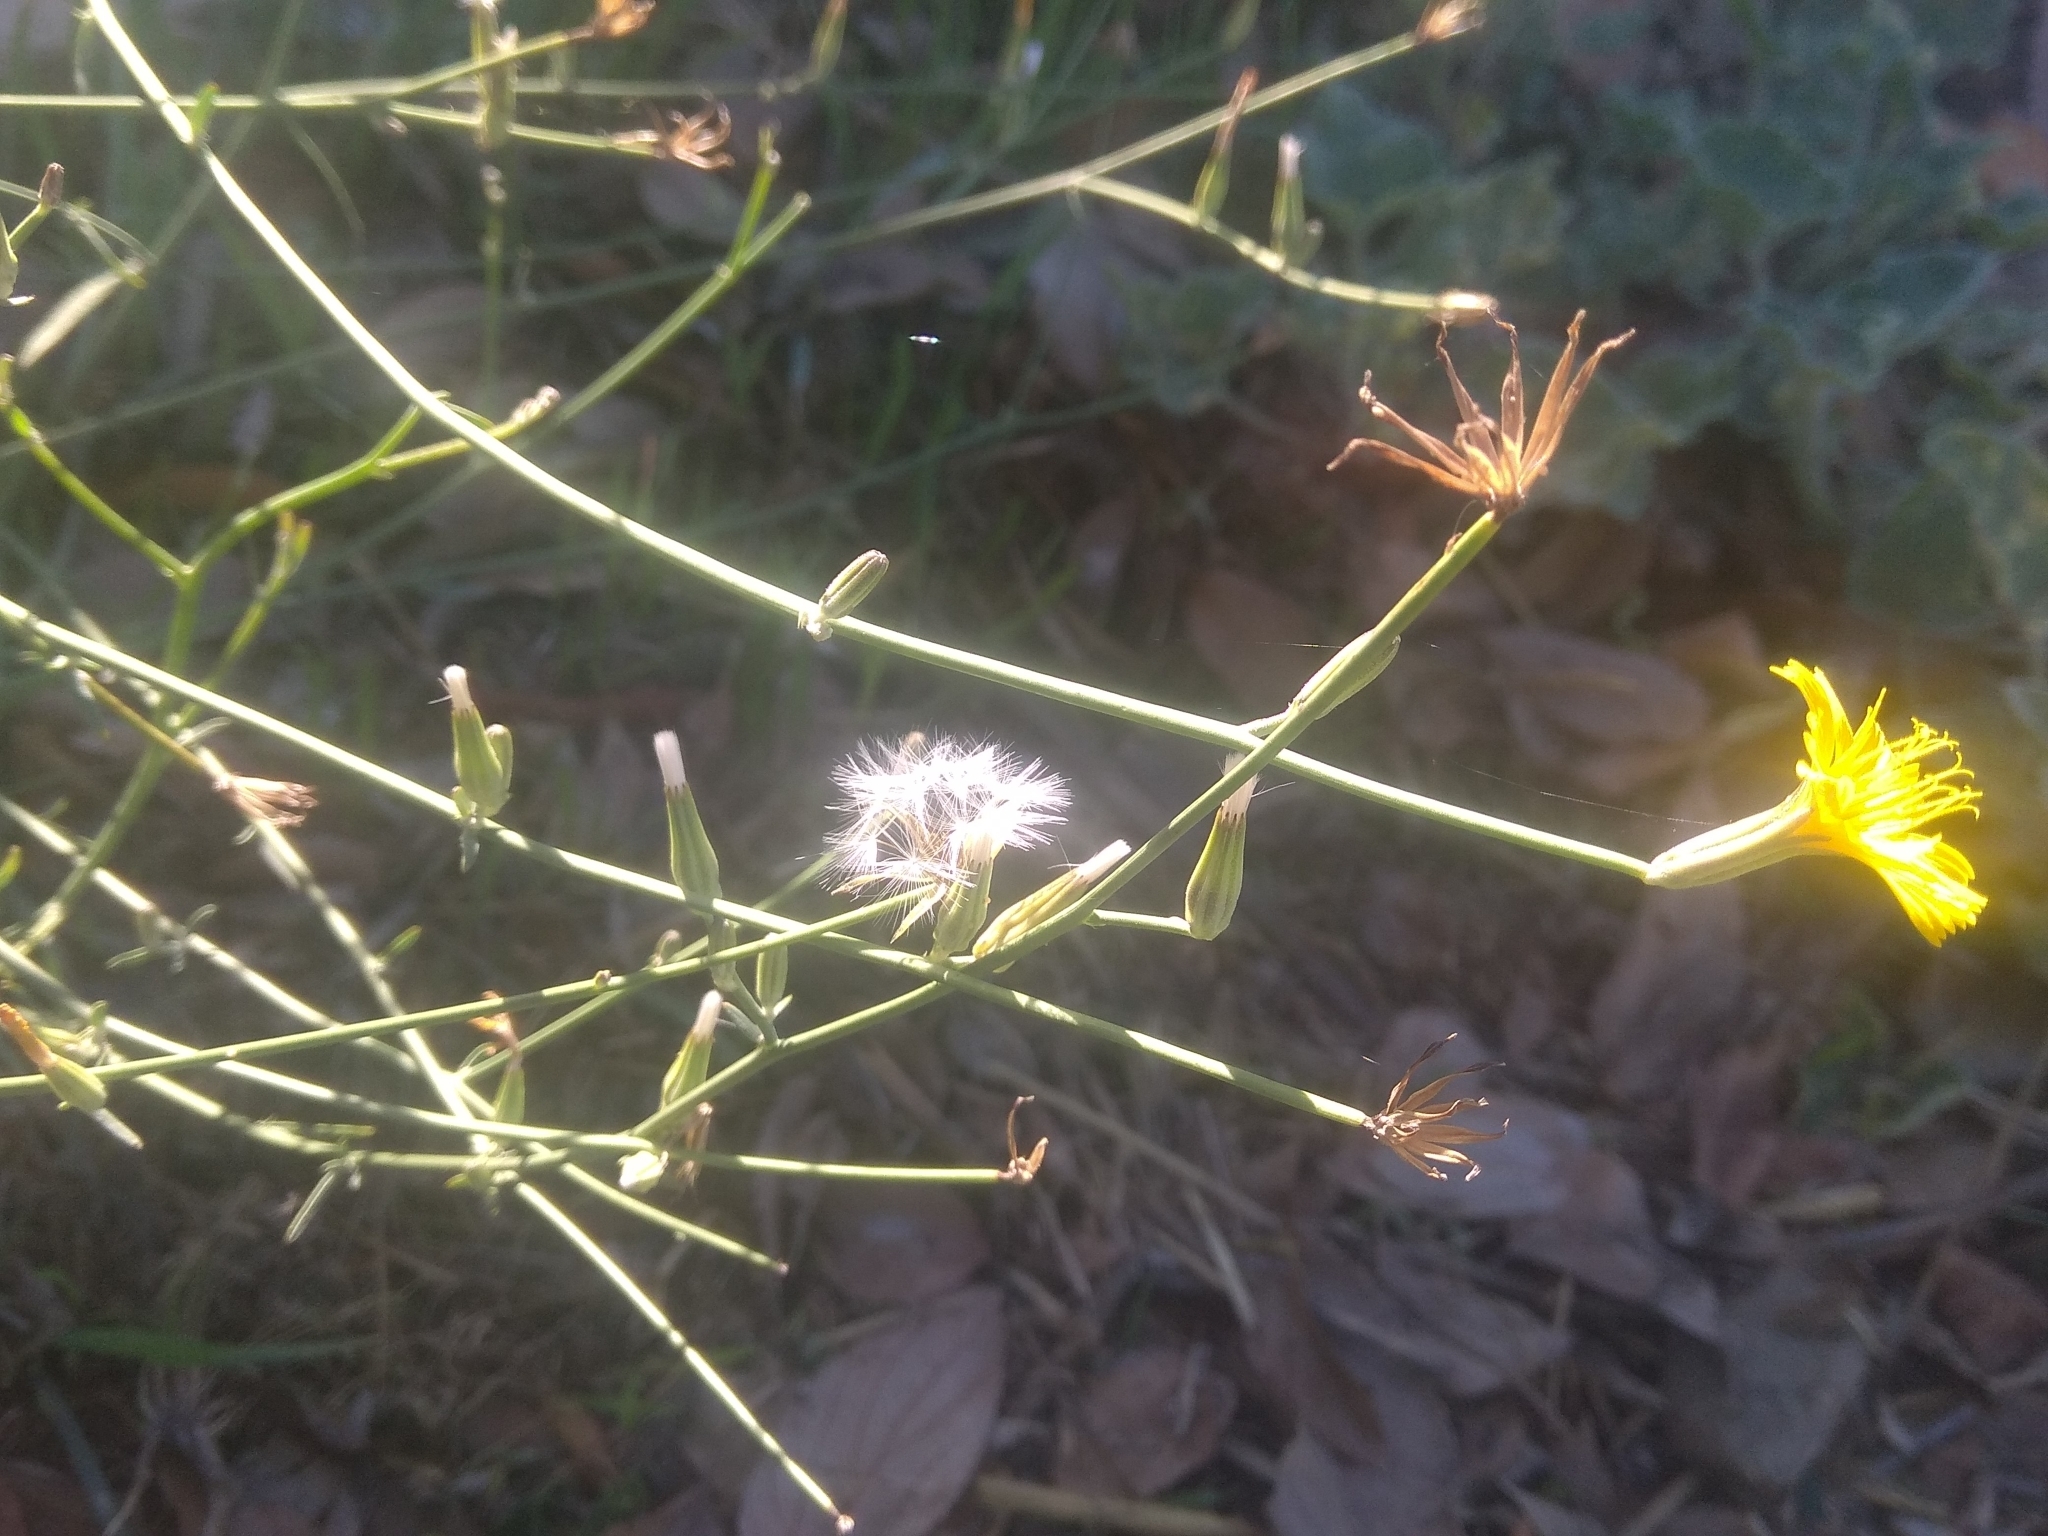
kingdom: Plantae
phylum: Tracheophyta
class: Magnoliopsida
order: Asterales
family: Asteraceae
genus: Chondrilla
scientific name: Chondrilla juncea
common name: Skeleton weed
